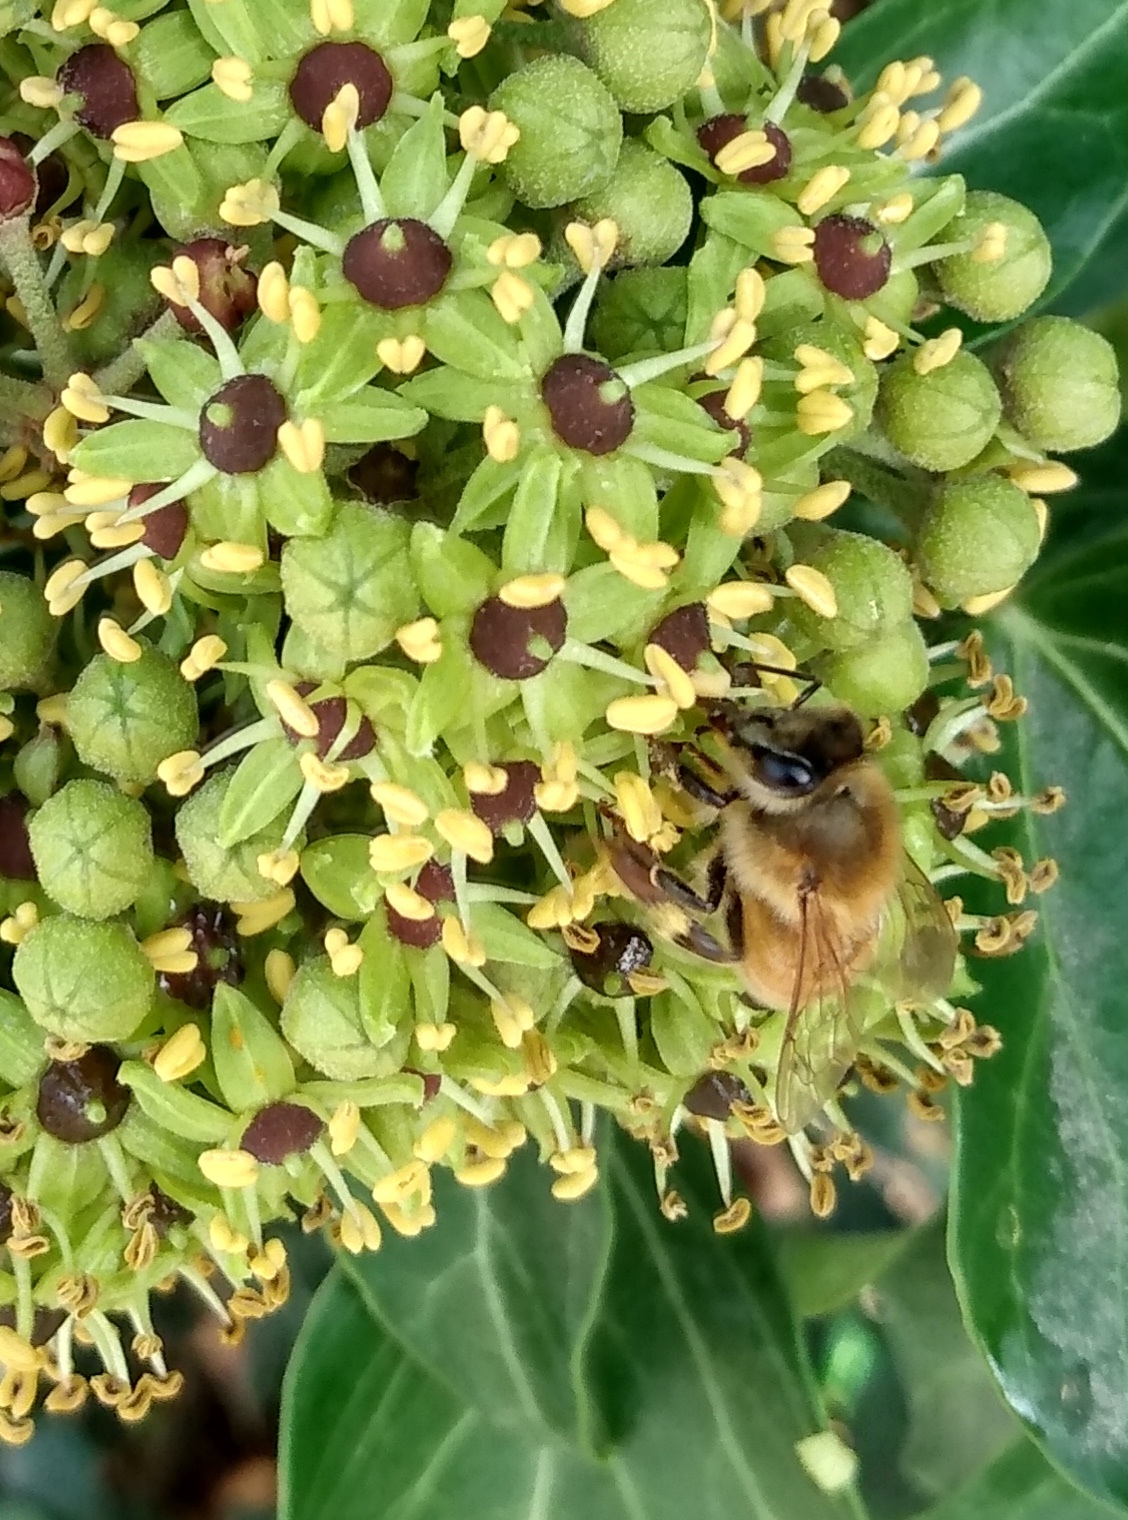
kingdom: Animalia
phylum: Arthropoda
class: Insecta
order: Hymenoptera
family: Apidae
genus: Apis
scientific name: Apis mellifera
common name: Honey bee
